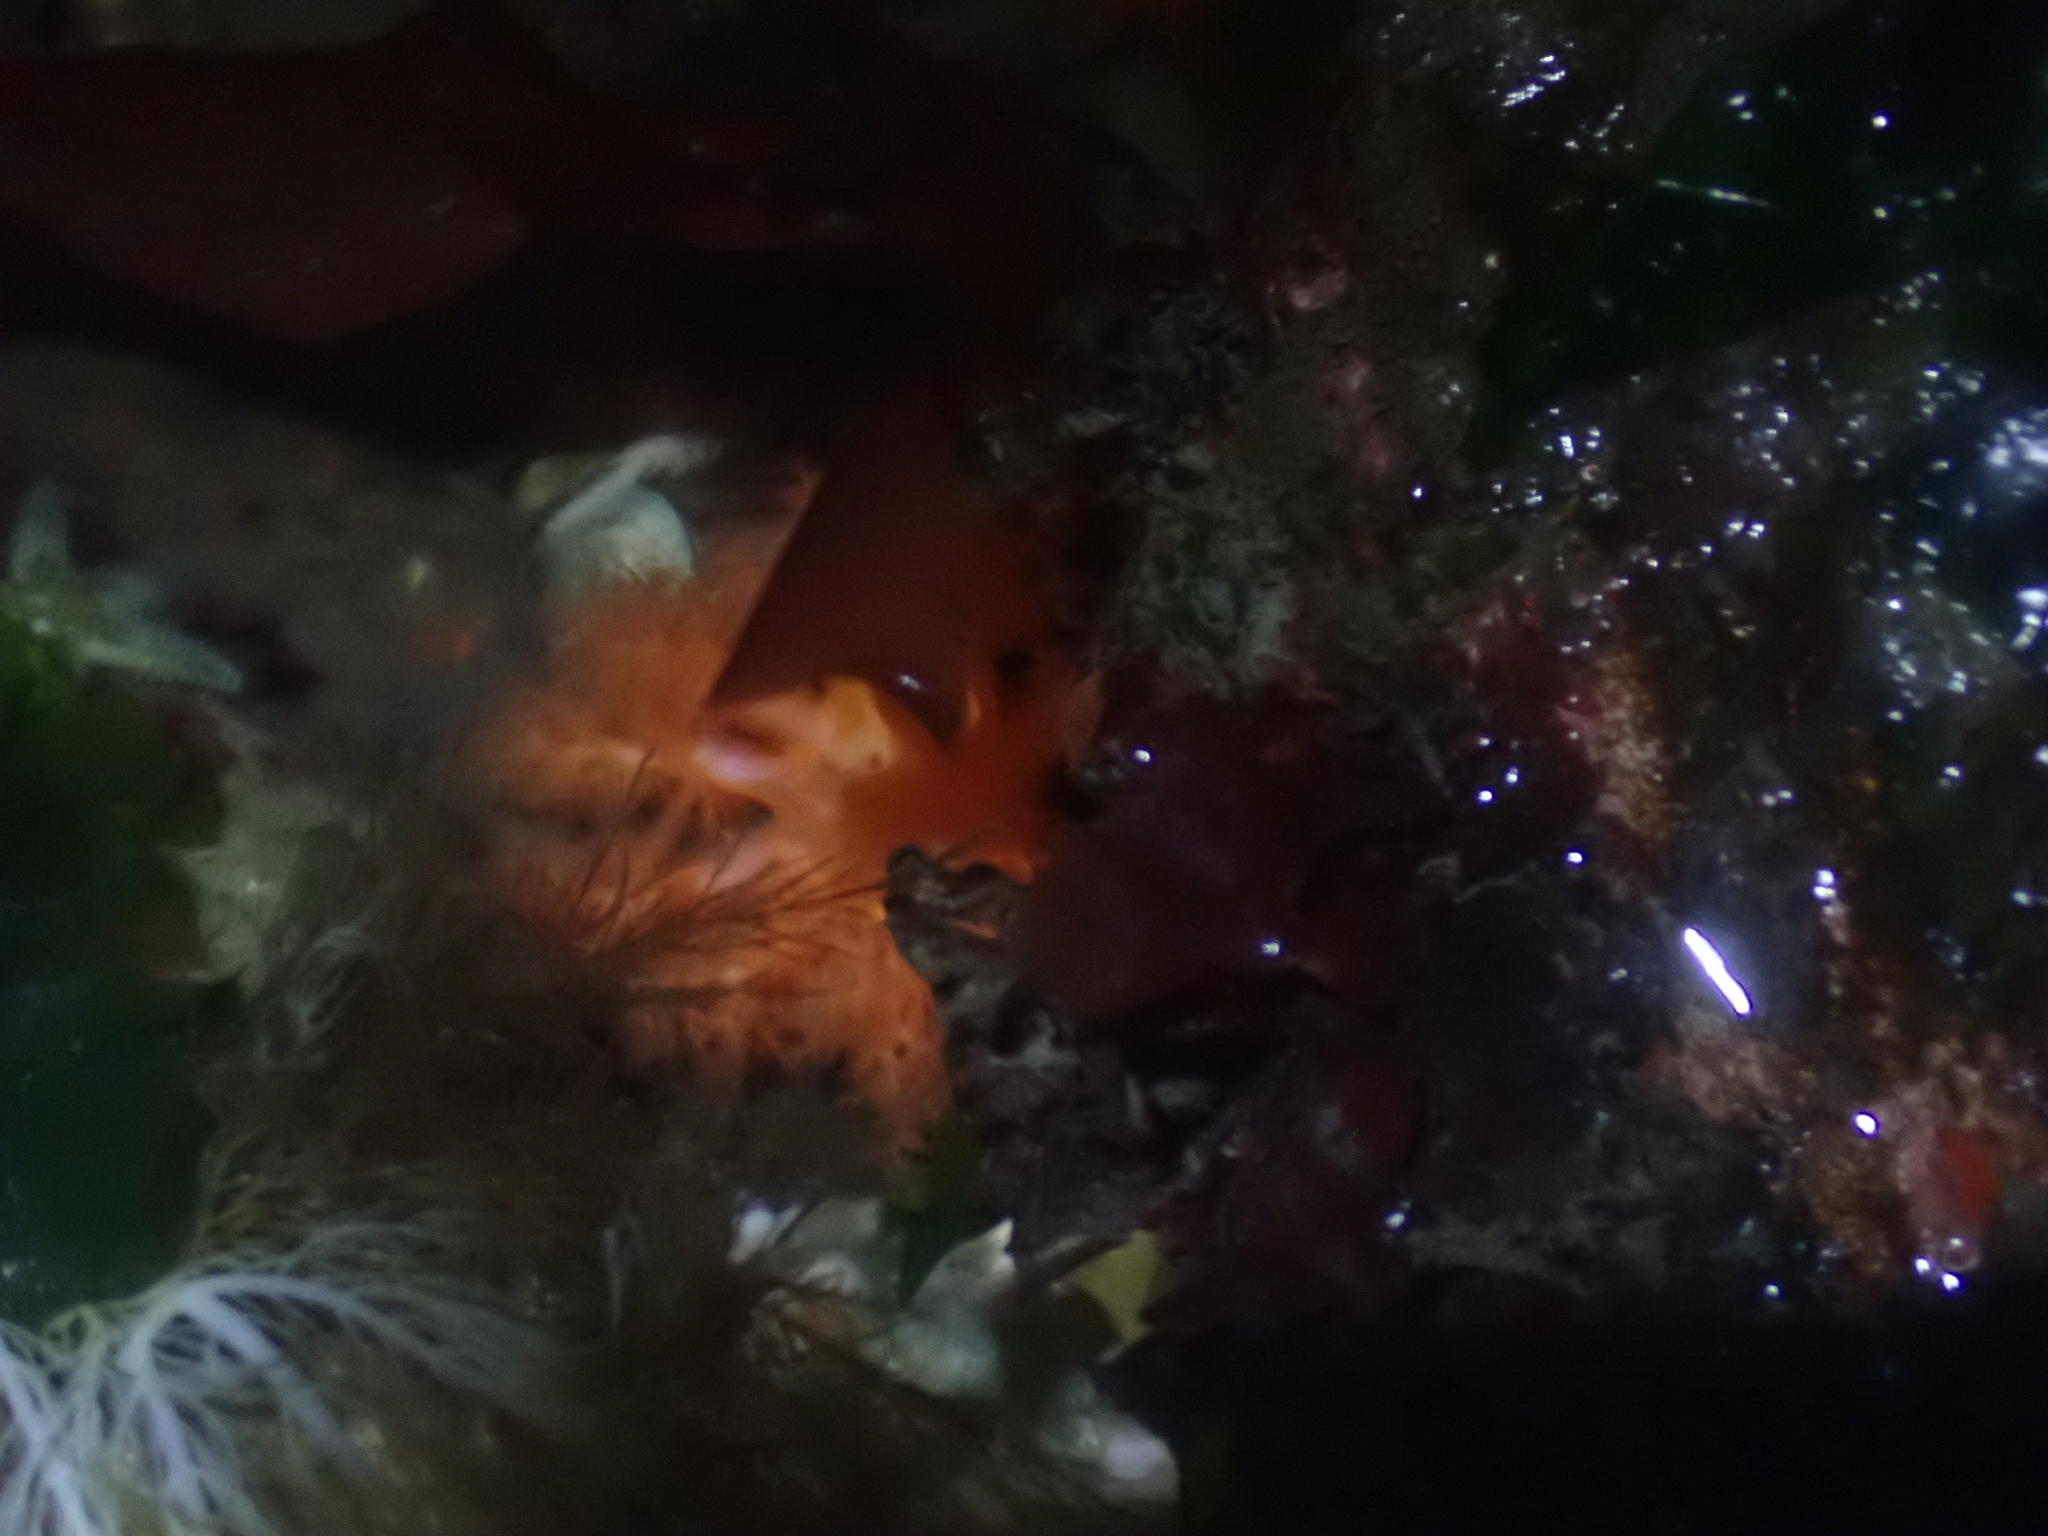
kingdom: Animalia
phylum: Echinodermata
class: Holothuroidea
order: Dendrochirotida
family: Cucumariidae
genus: Cucumaria
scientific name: Cucumaria miniata
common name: Orange sea cucumber
